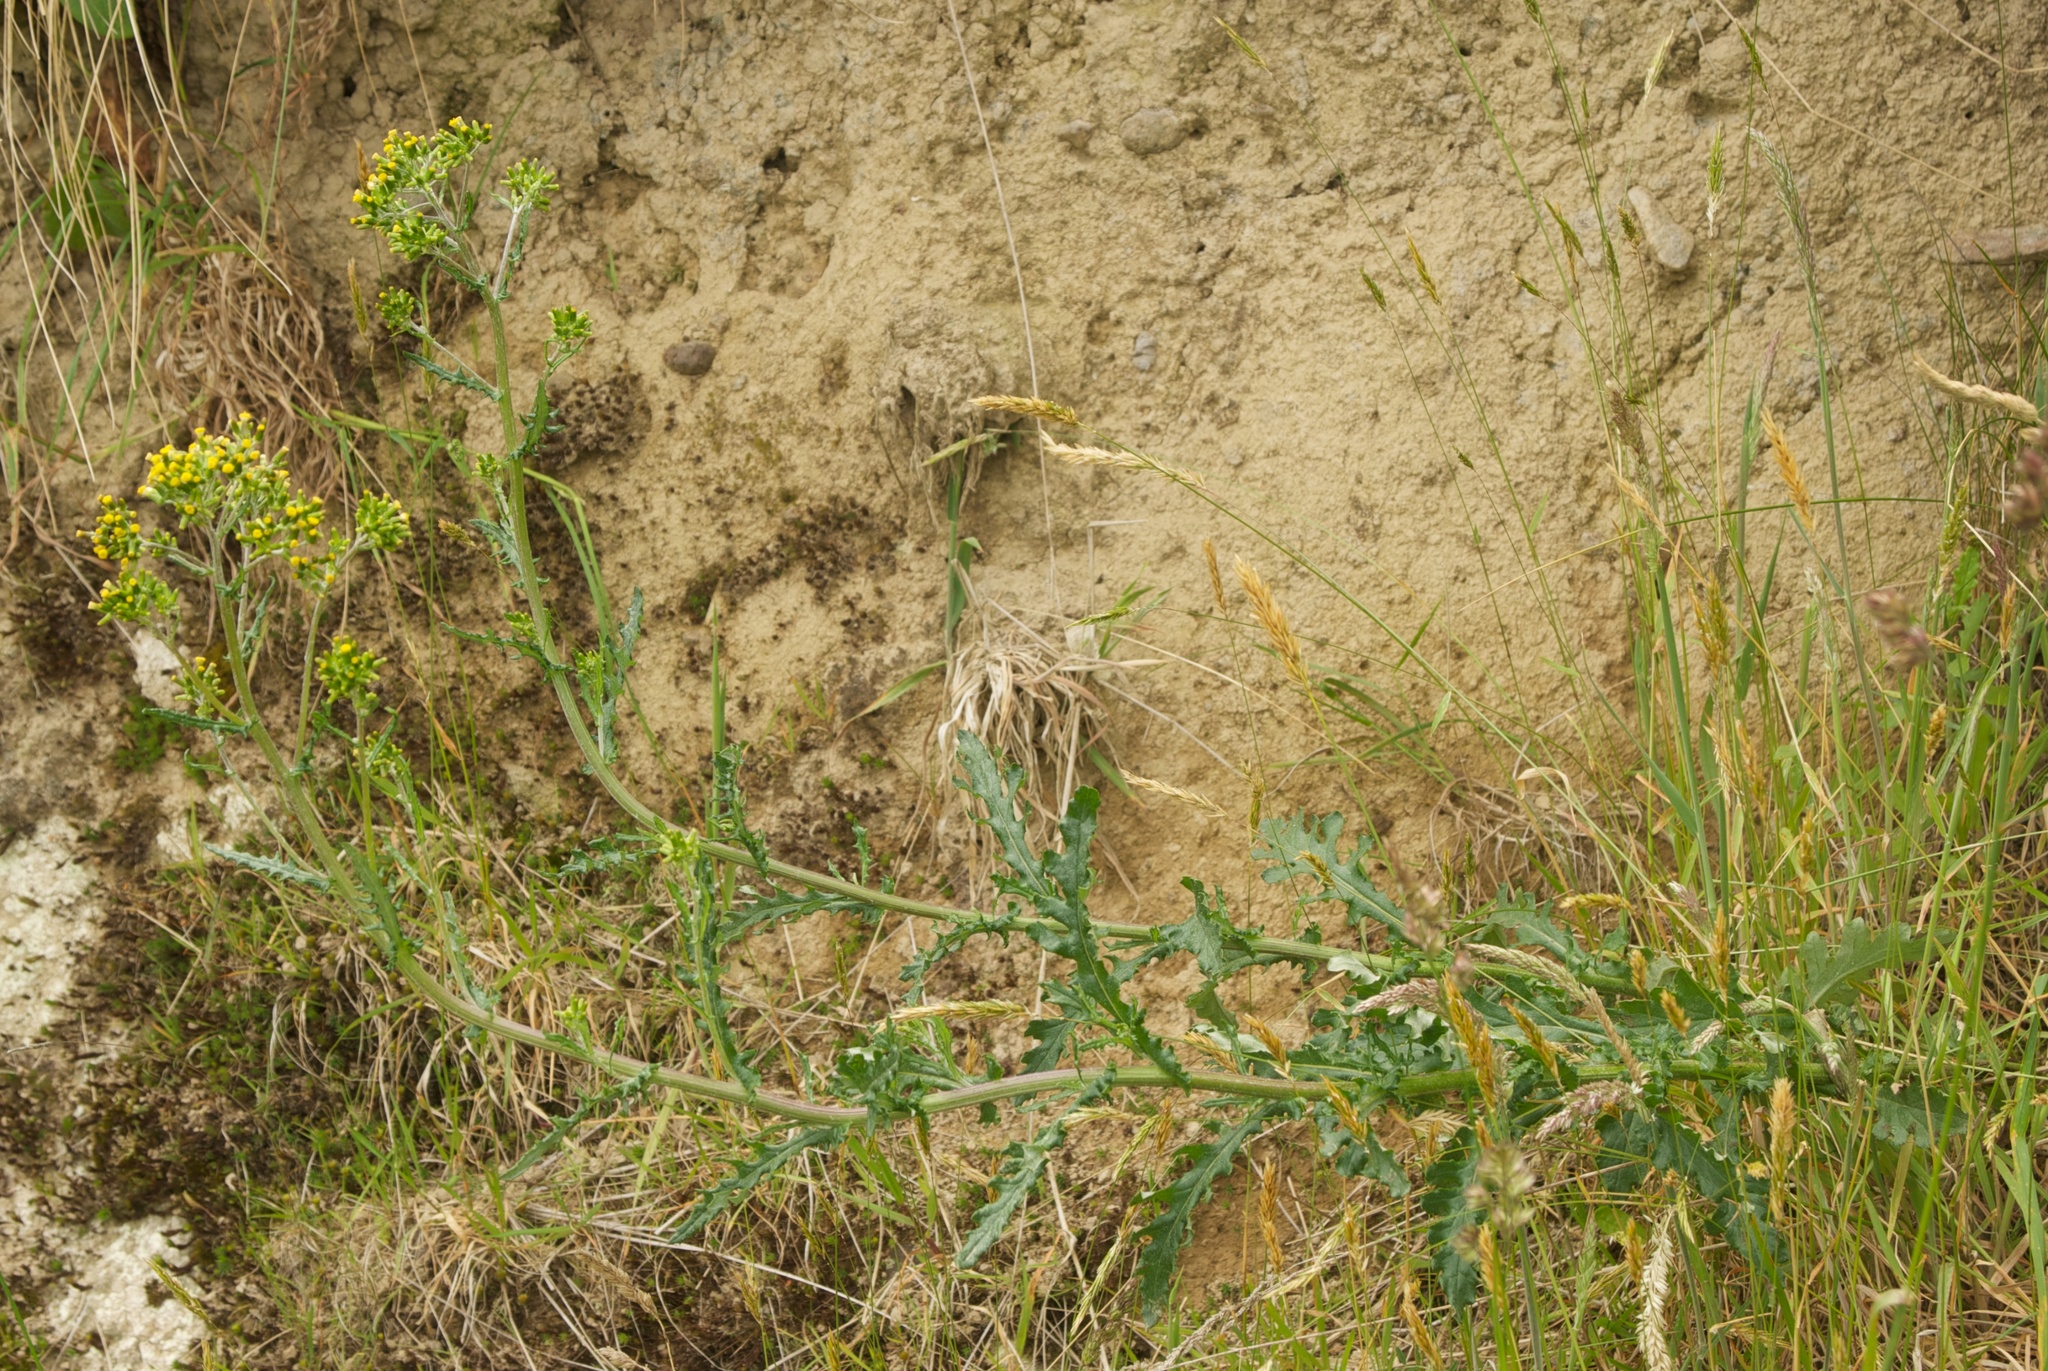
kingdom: Plantae
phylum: Tracheophyta
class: Magnoliopsida
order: Asterales
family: Asteraceae
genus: Senecio
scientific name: Senecio glomeratus
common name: Cutleaf burnweed
